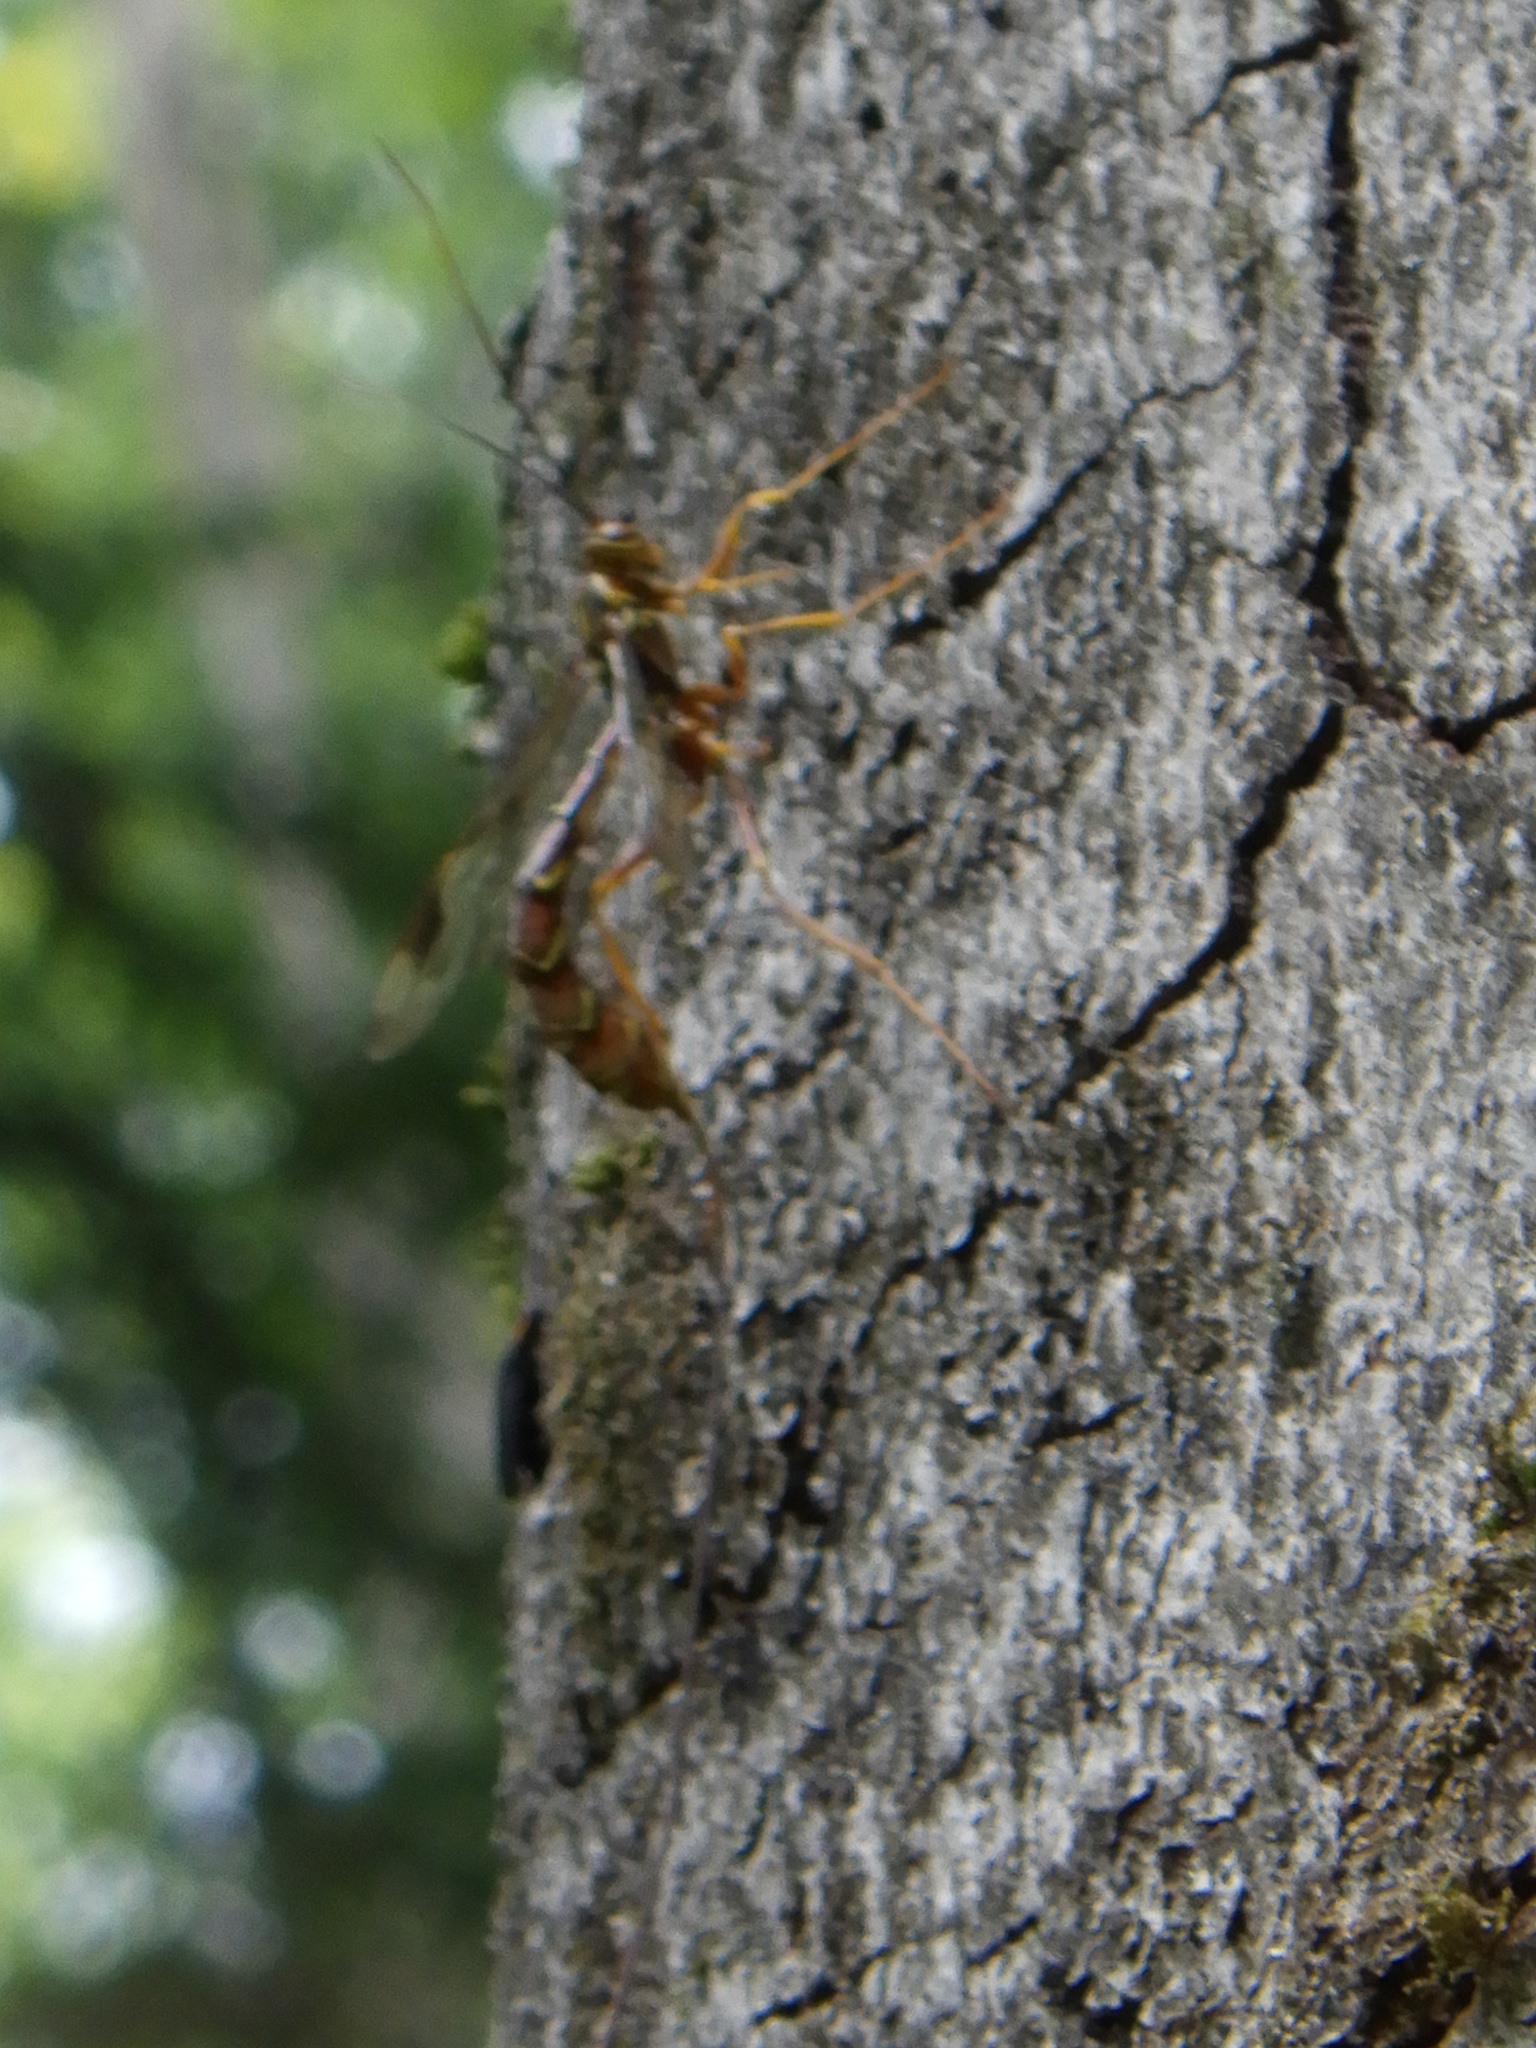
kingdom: Animalia
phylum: Arthropoda
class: Insecta
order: Hymenoptera
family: Ichneumonidae
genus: Megarhyssa
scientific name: Megarhyssa macrura
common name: Long-tailed giant ichneumonid wasp
